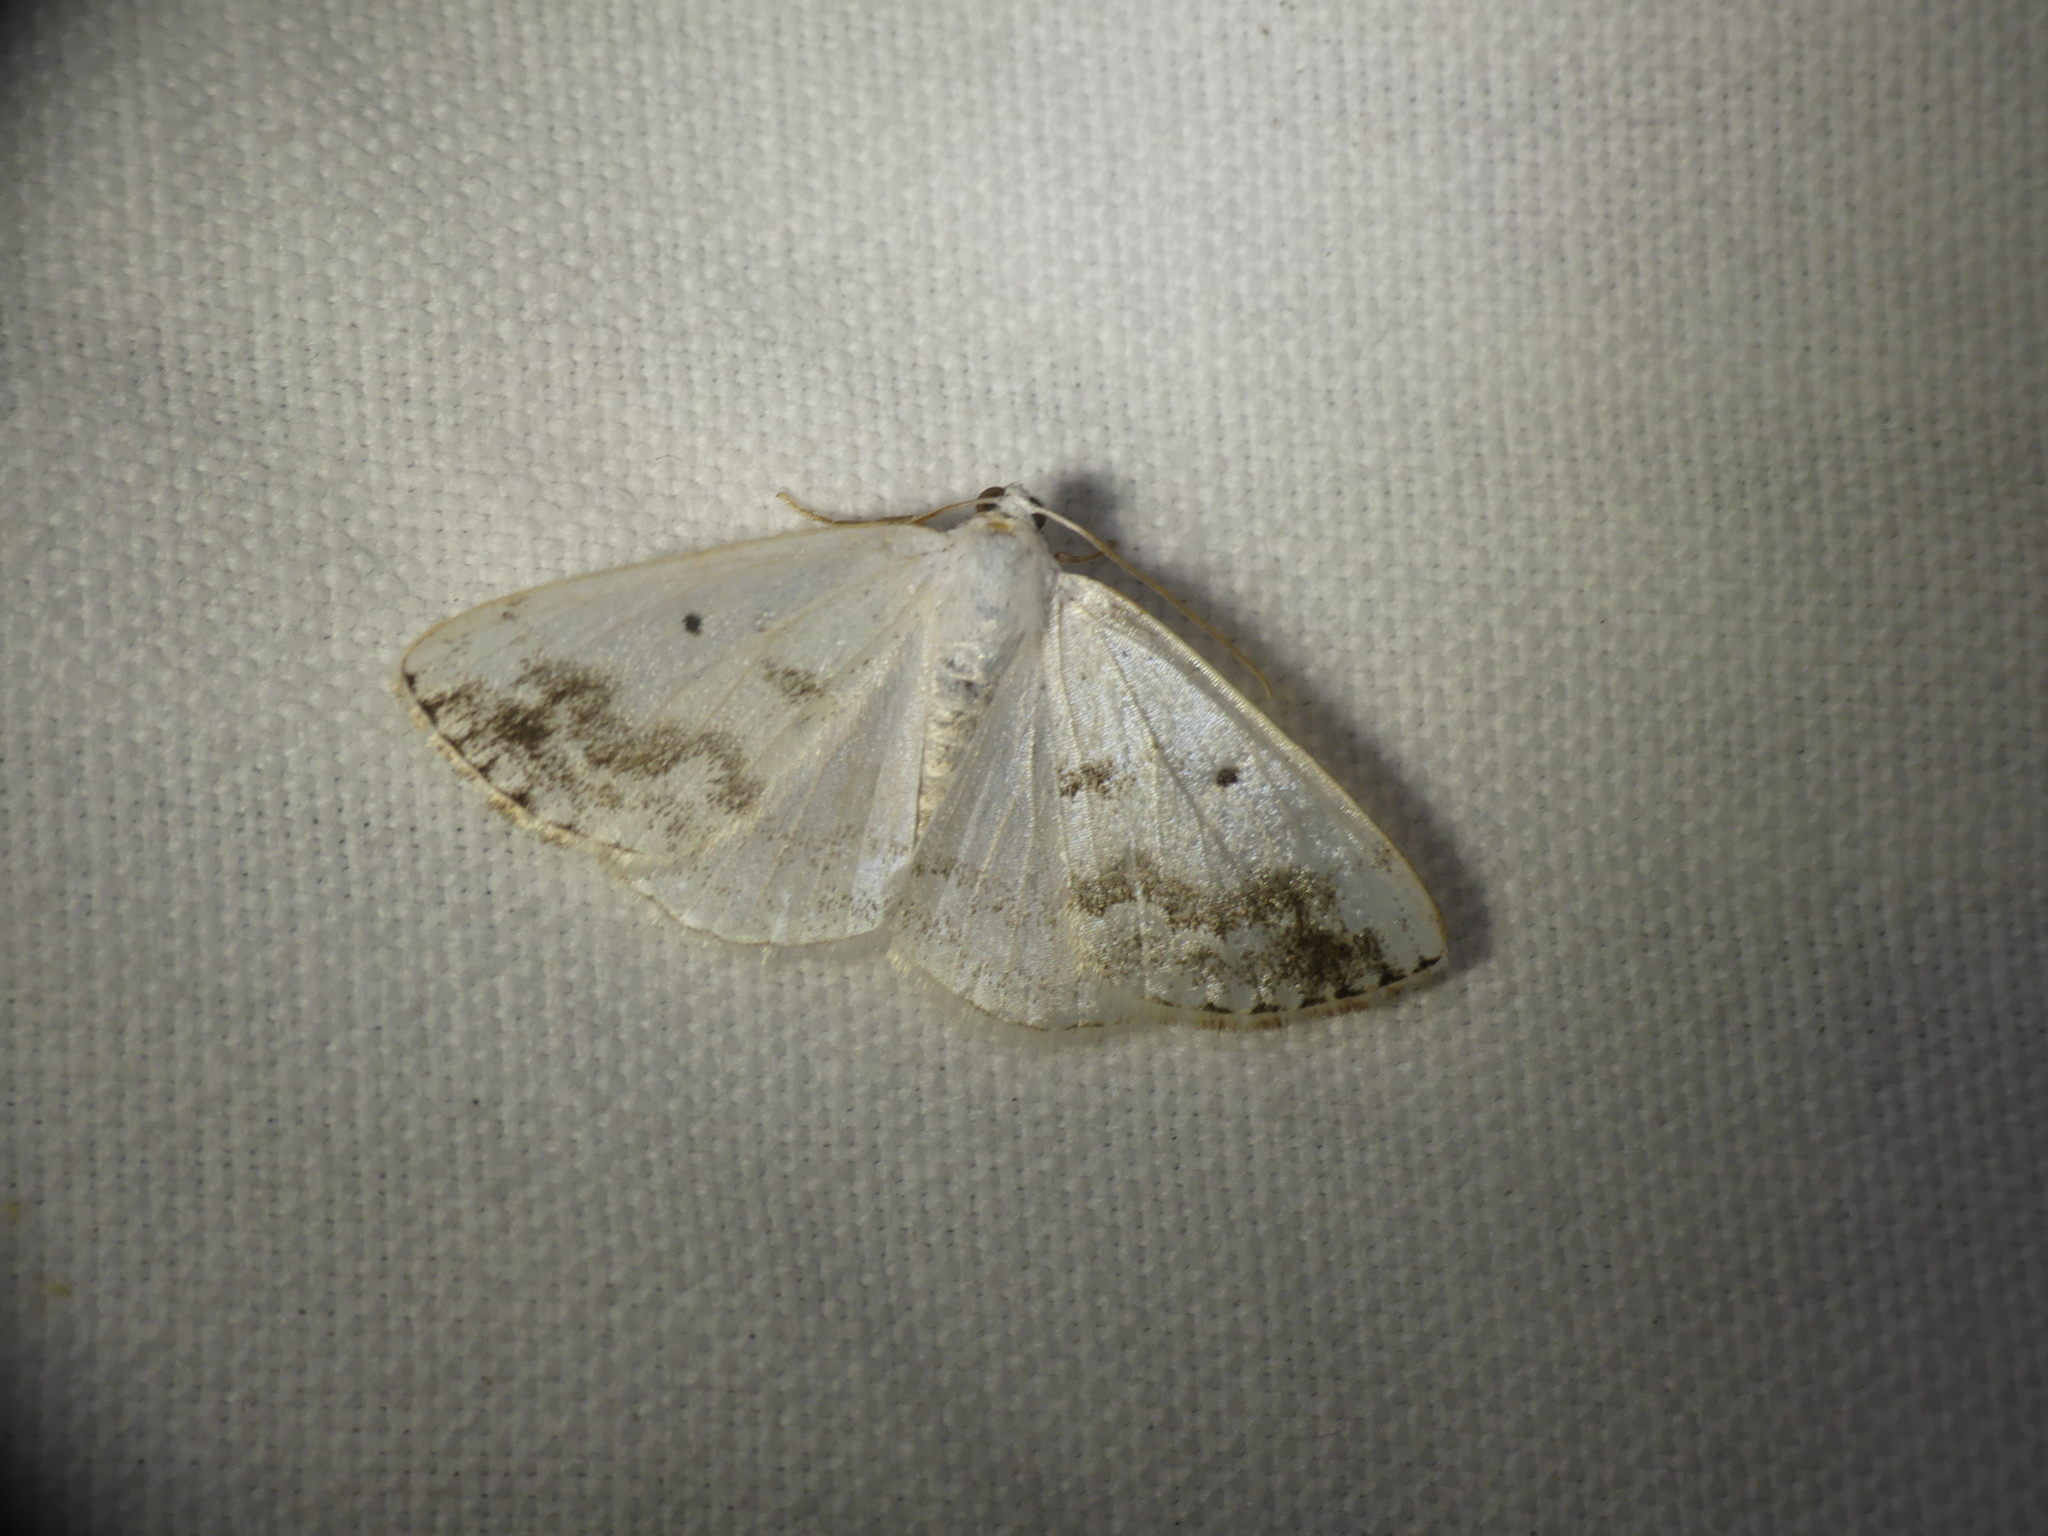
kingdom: Animalia
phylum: Arthropoda
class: Insecta
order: Lepidoptera
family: Geometridae
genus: Lomographa
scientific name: Lomographa temerata
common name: Clouded silver
